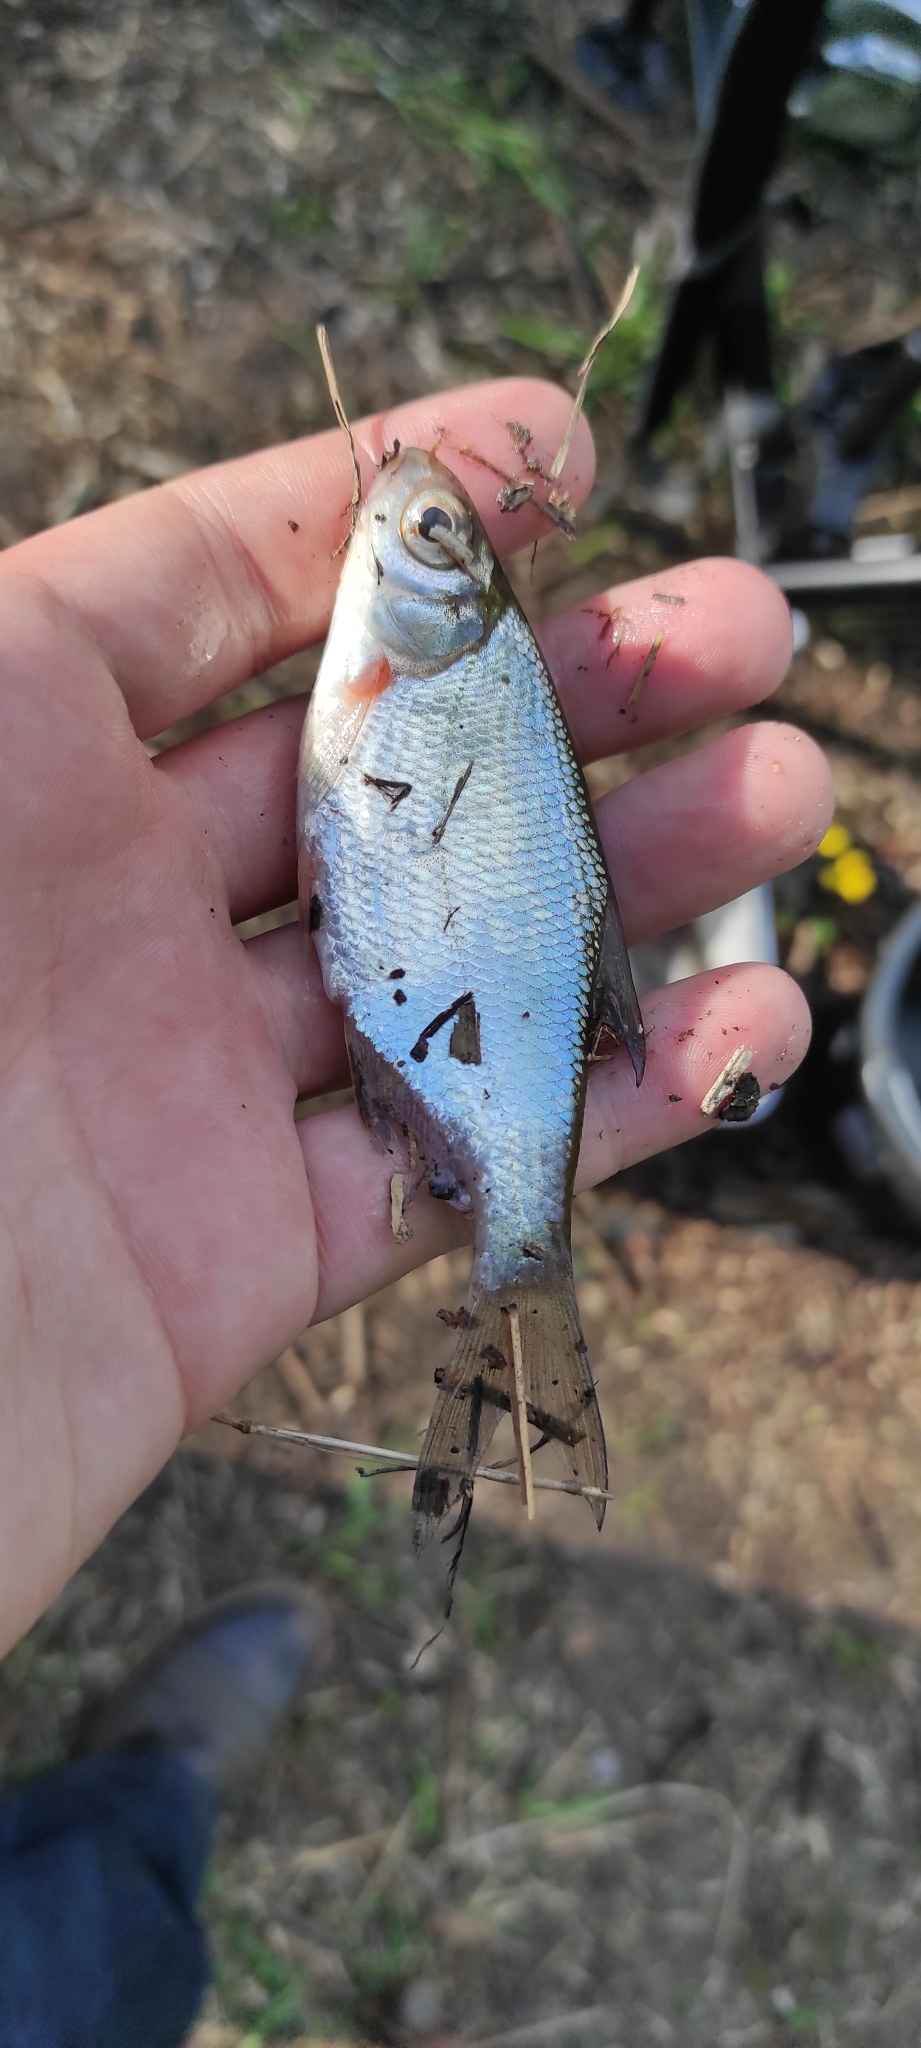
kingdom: Animalia
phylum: Chordata
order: Cypriniformes
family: Cyprinidae
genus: Blicca
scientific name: Blicca bjoerkna
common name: White bream
